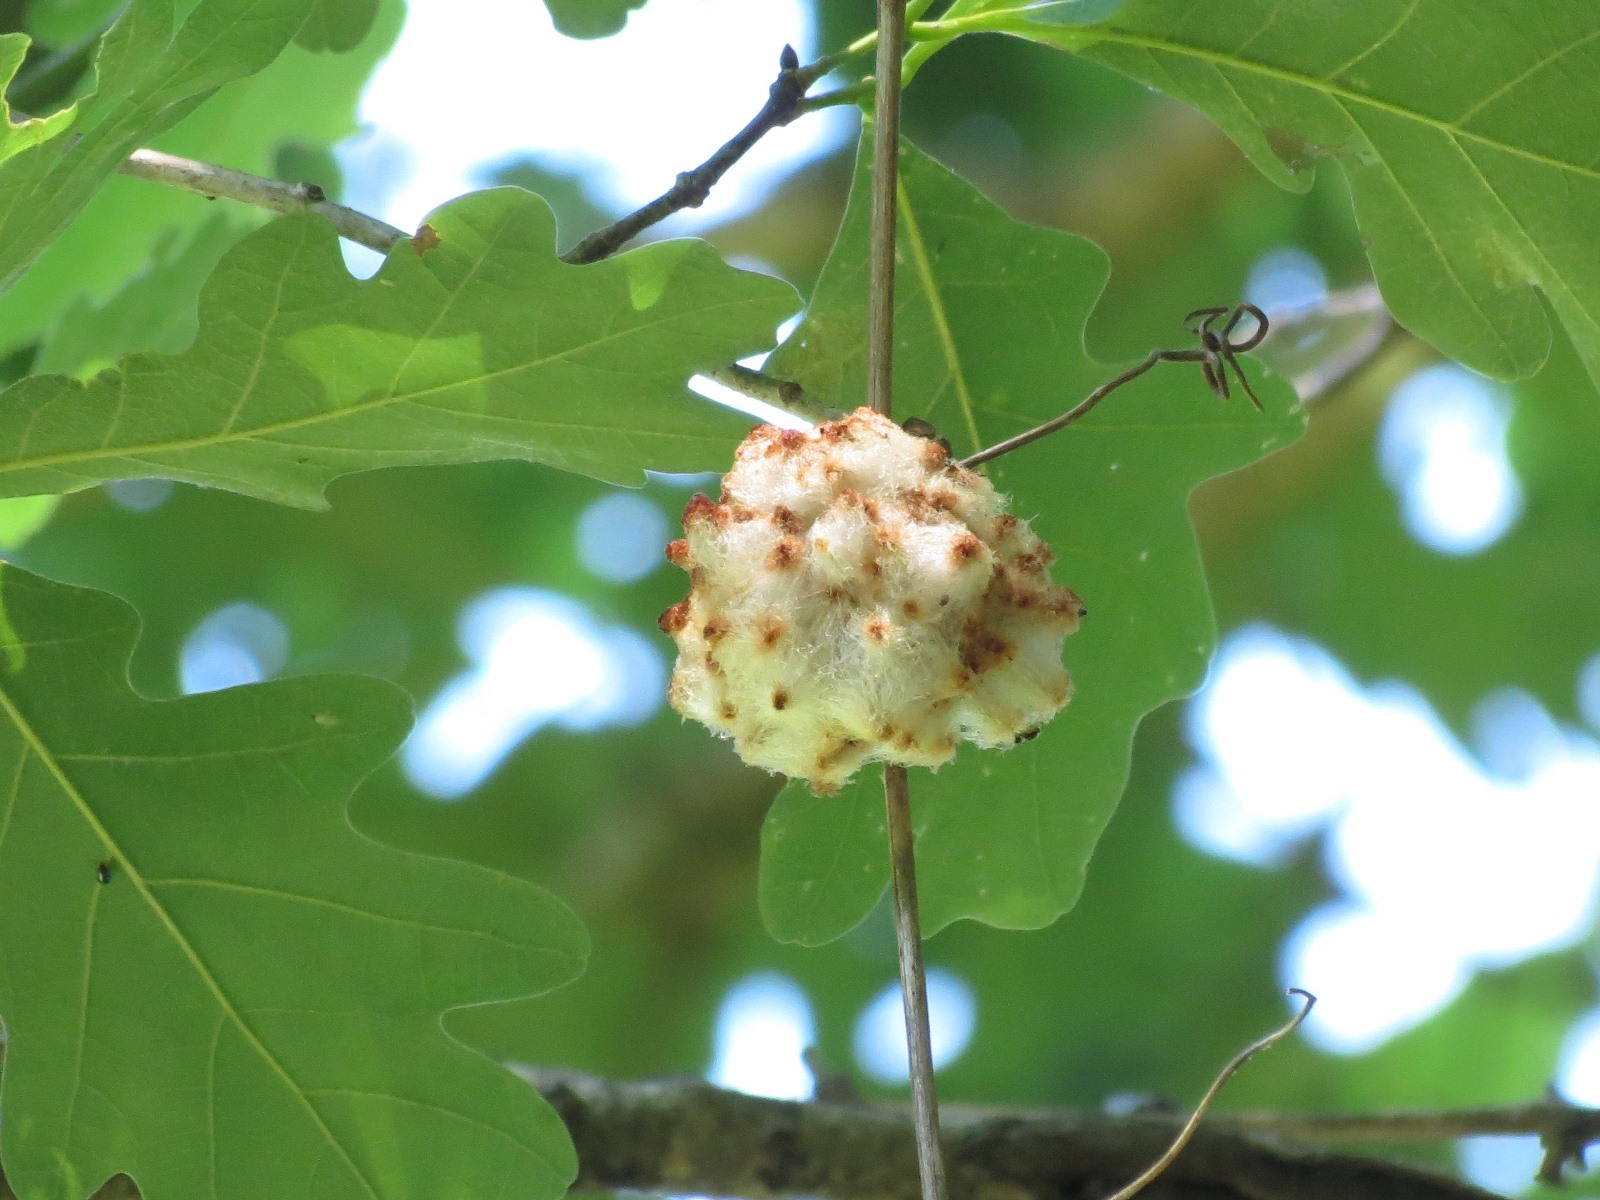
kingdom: Animalia
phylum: Arthropoda
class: Insecta
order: Hymenoptera
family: Cynipidae
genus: Callirhytis
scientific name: Callirhytis
